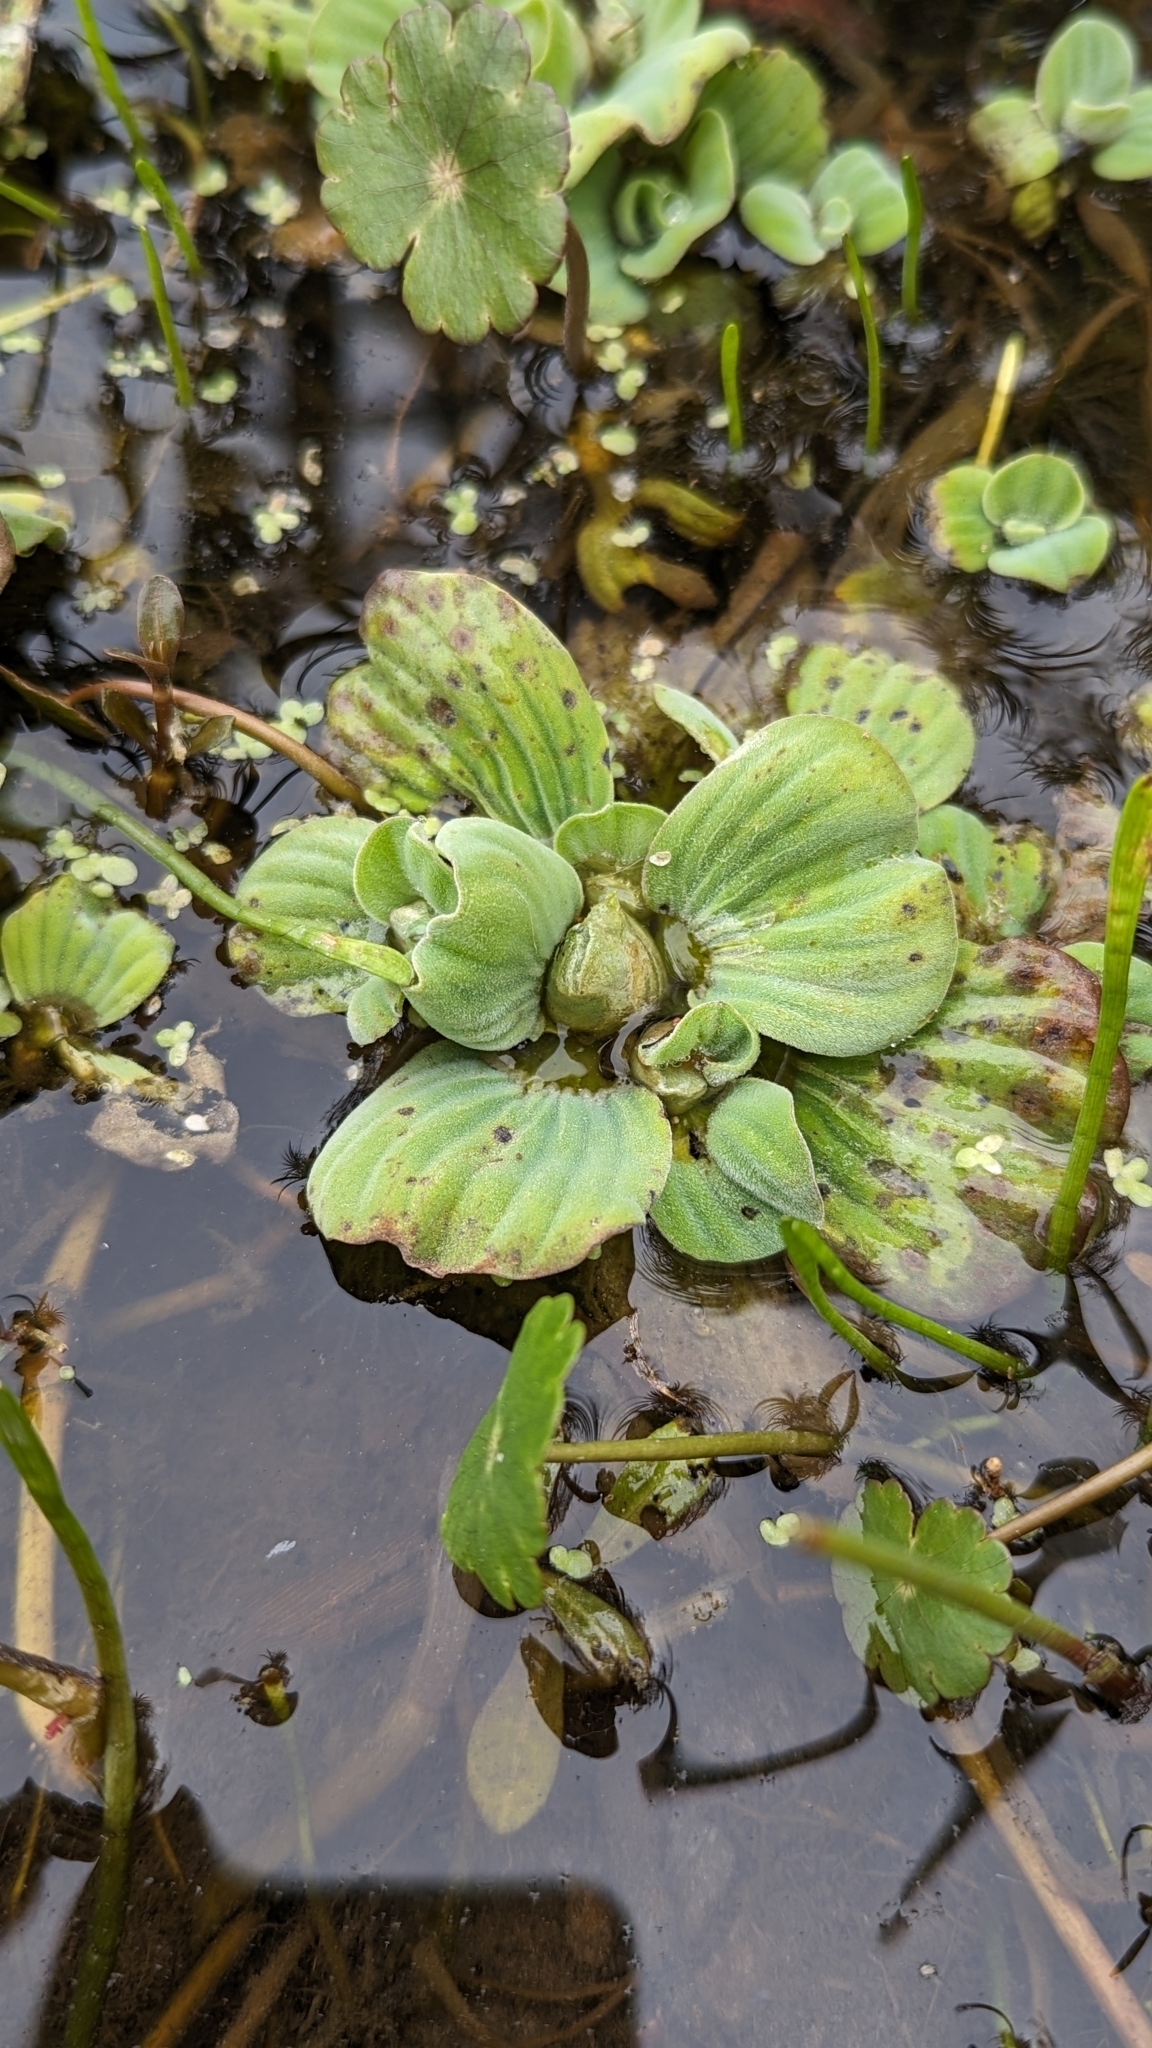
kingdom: Plantae
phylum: Tracheophyta
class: Liliopsida
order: Alismatales
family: Araceae
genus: Pistia
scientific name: Pistia stratiotes
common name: Water lettuce
